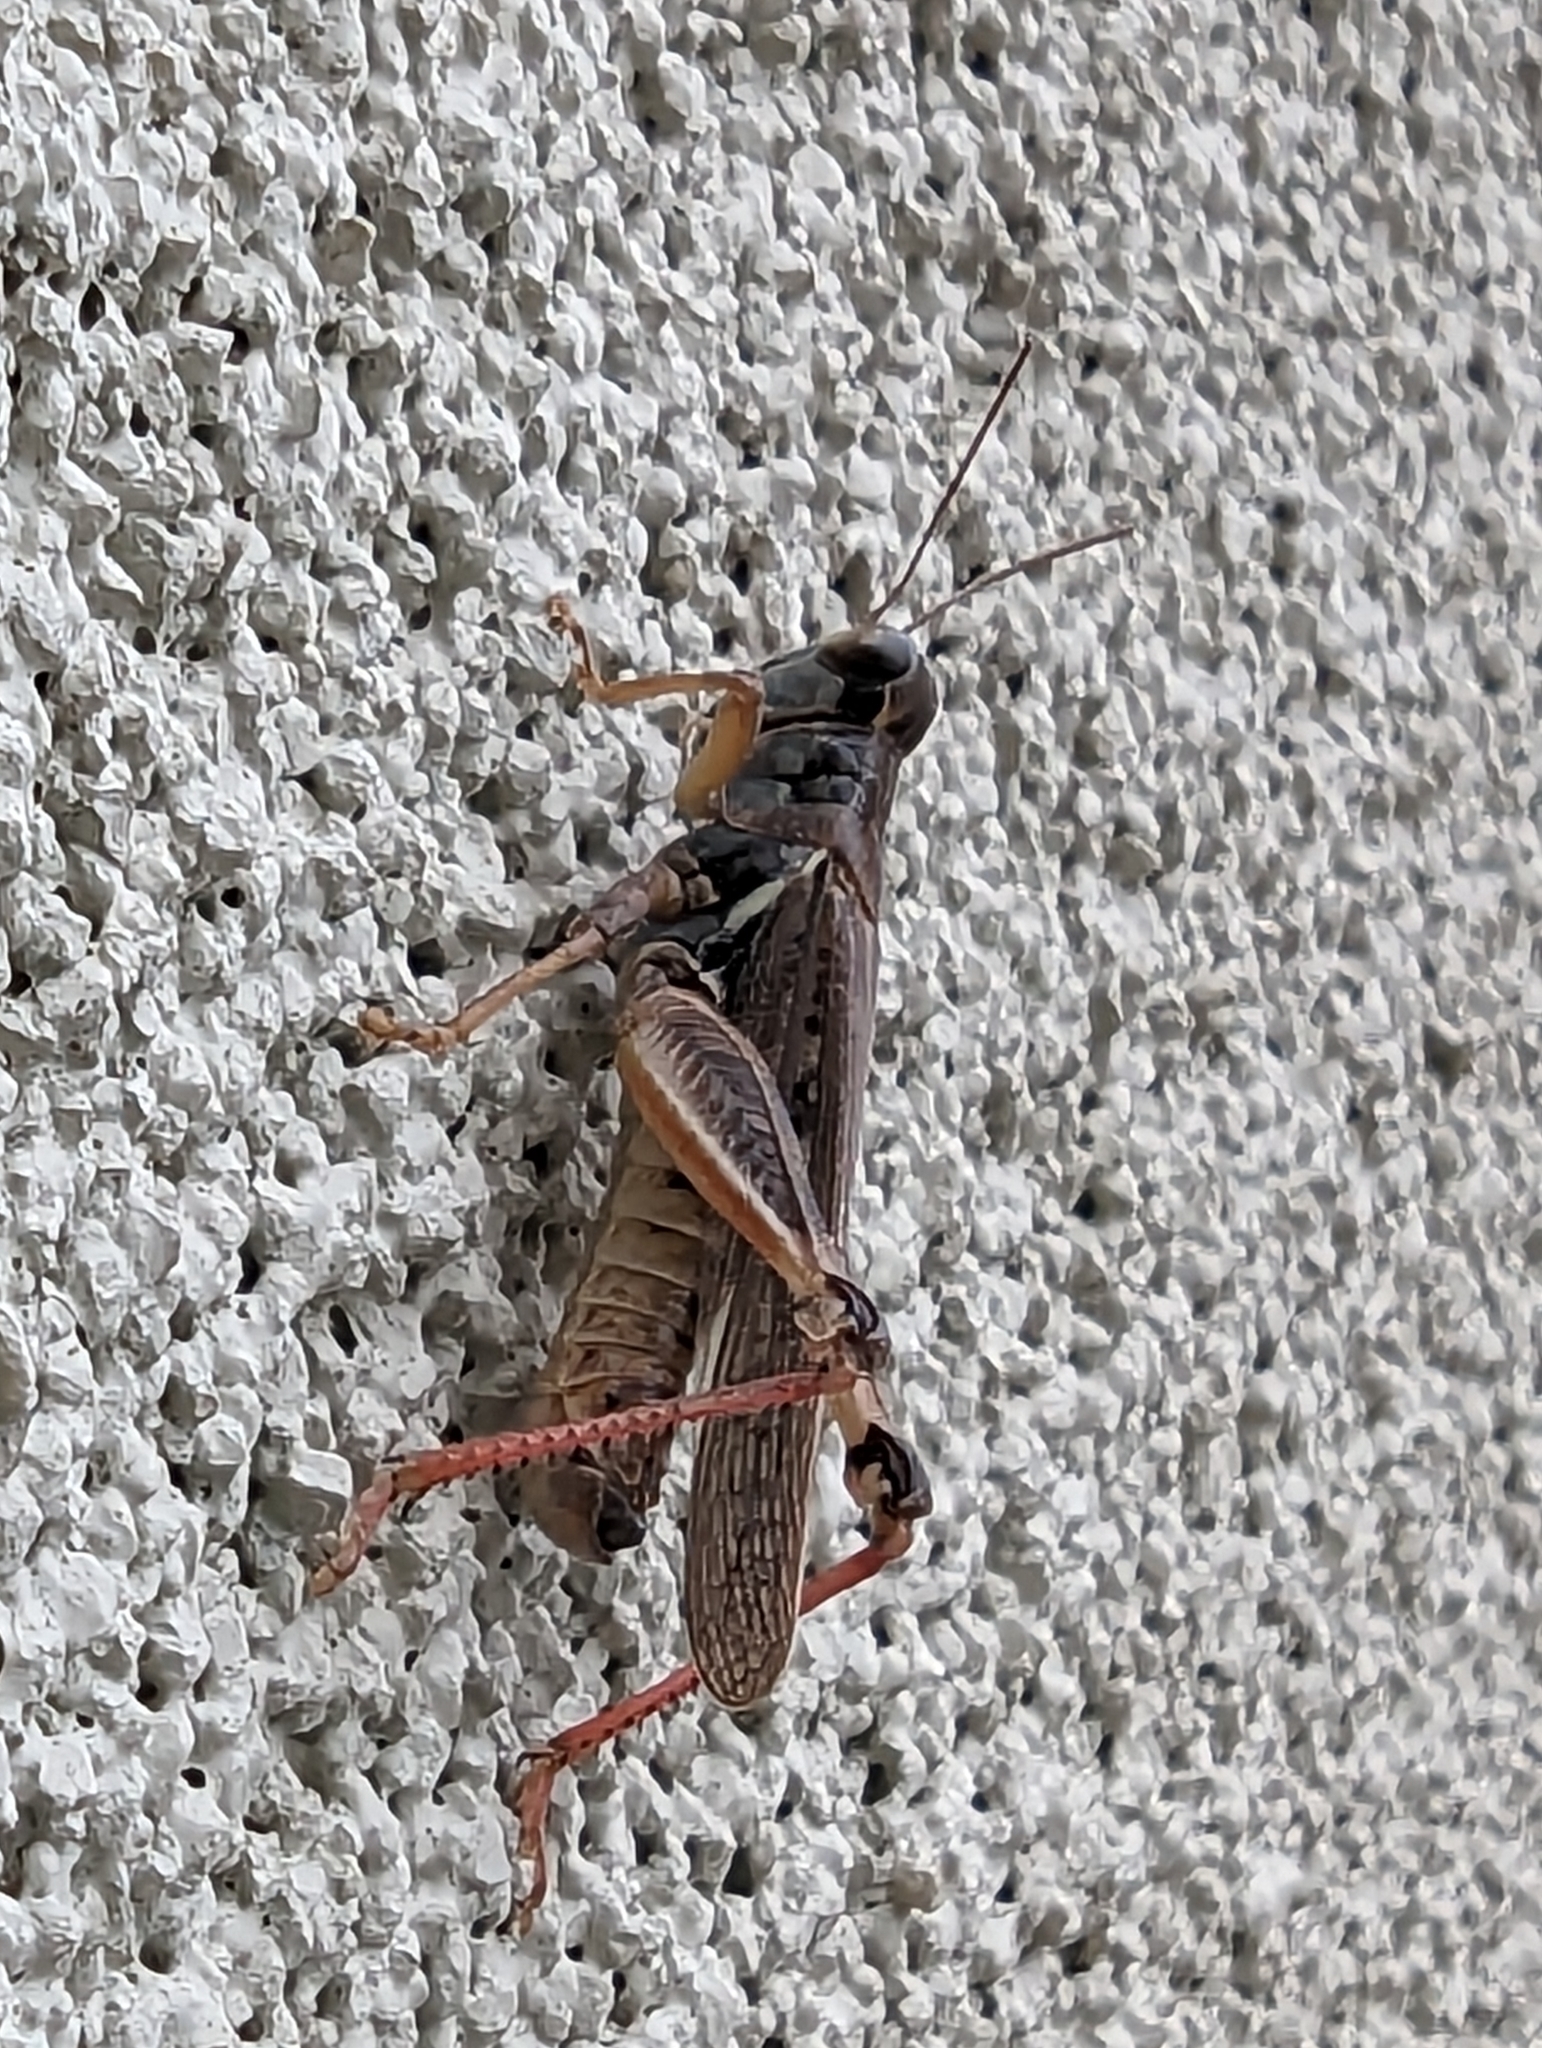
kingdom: Animalia
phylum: Arthropoda
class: Insecta
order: Orthoptera
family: Acrididae
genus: Melanoplus
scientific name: Melanoplus sanguinipes
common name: Migratory grasshopper
